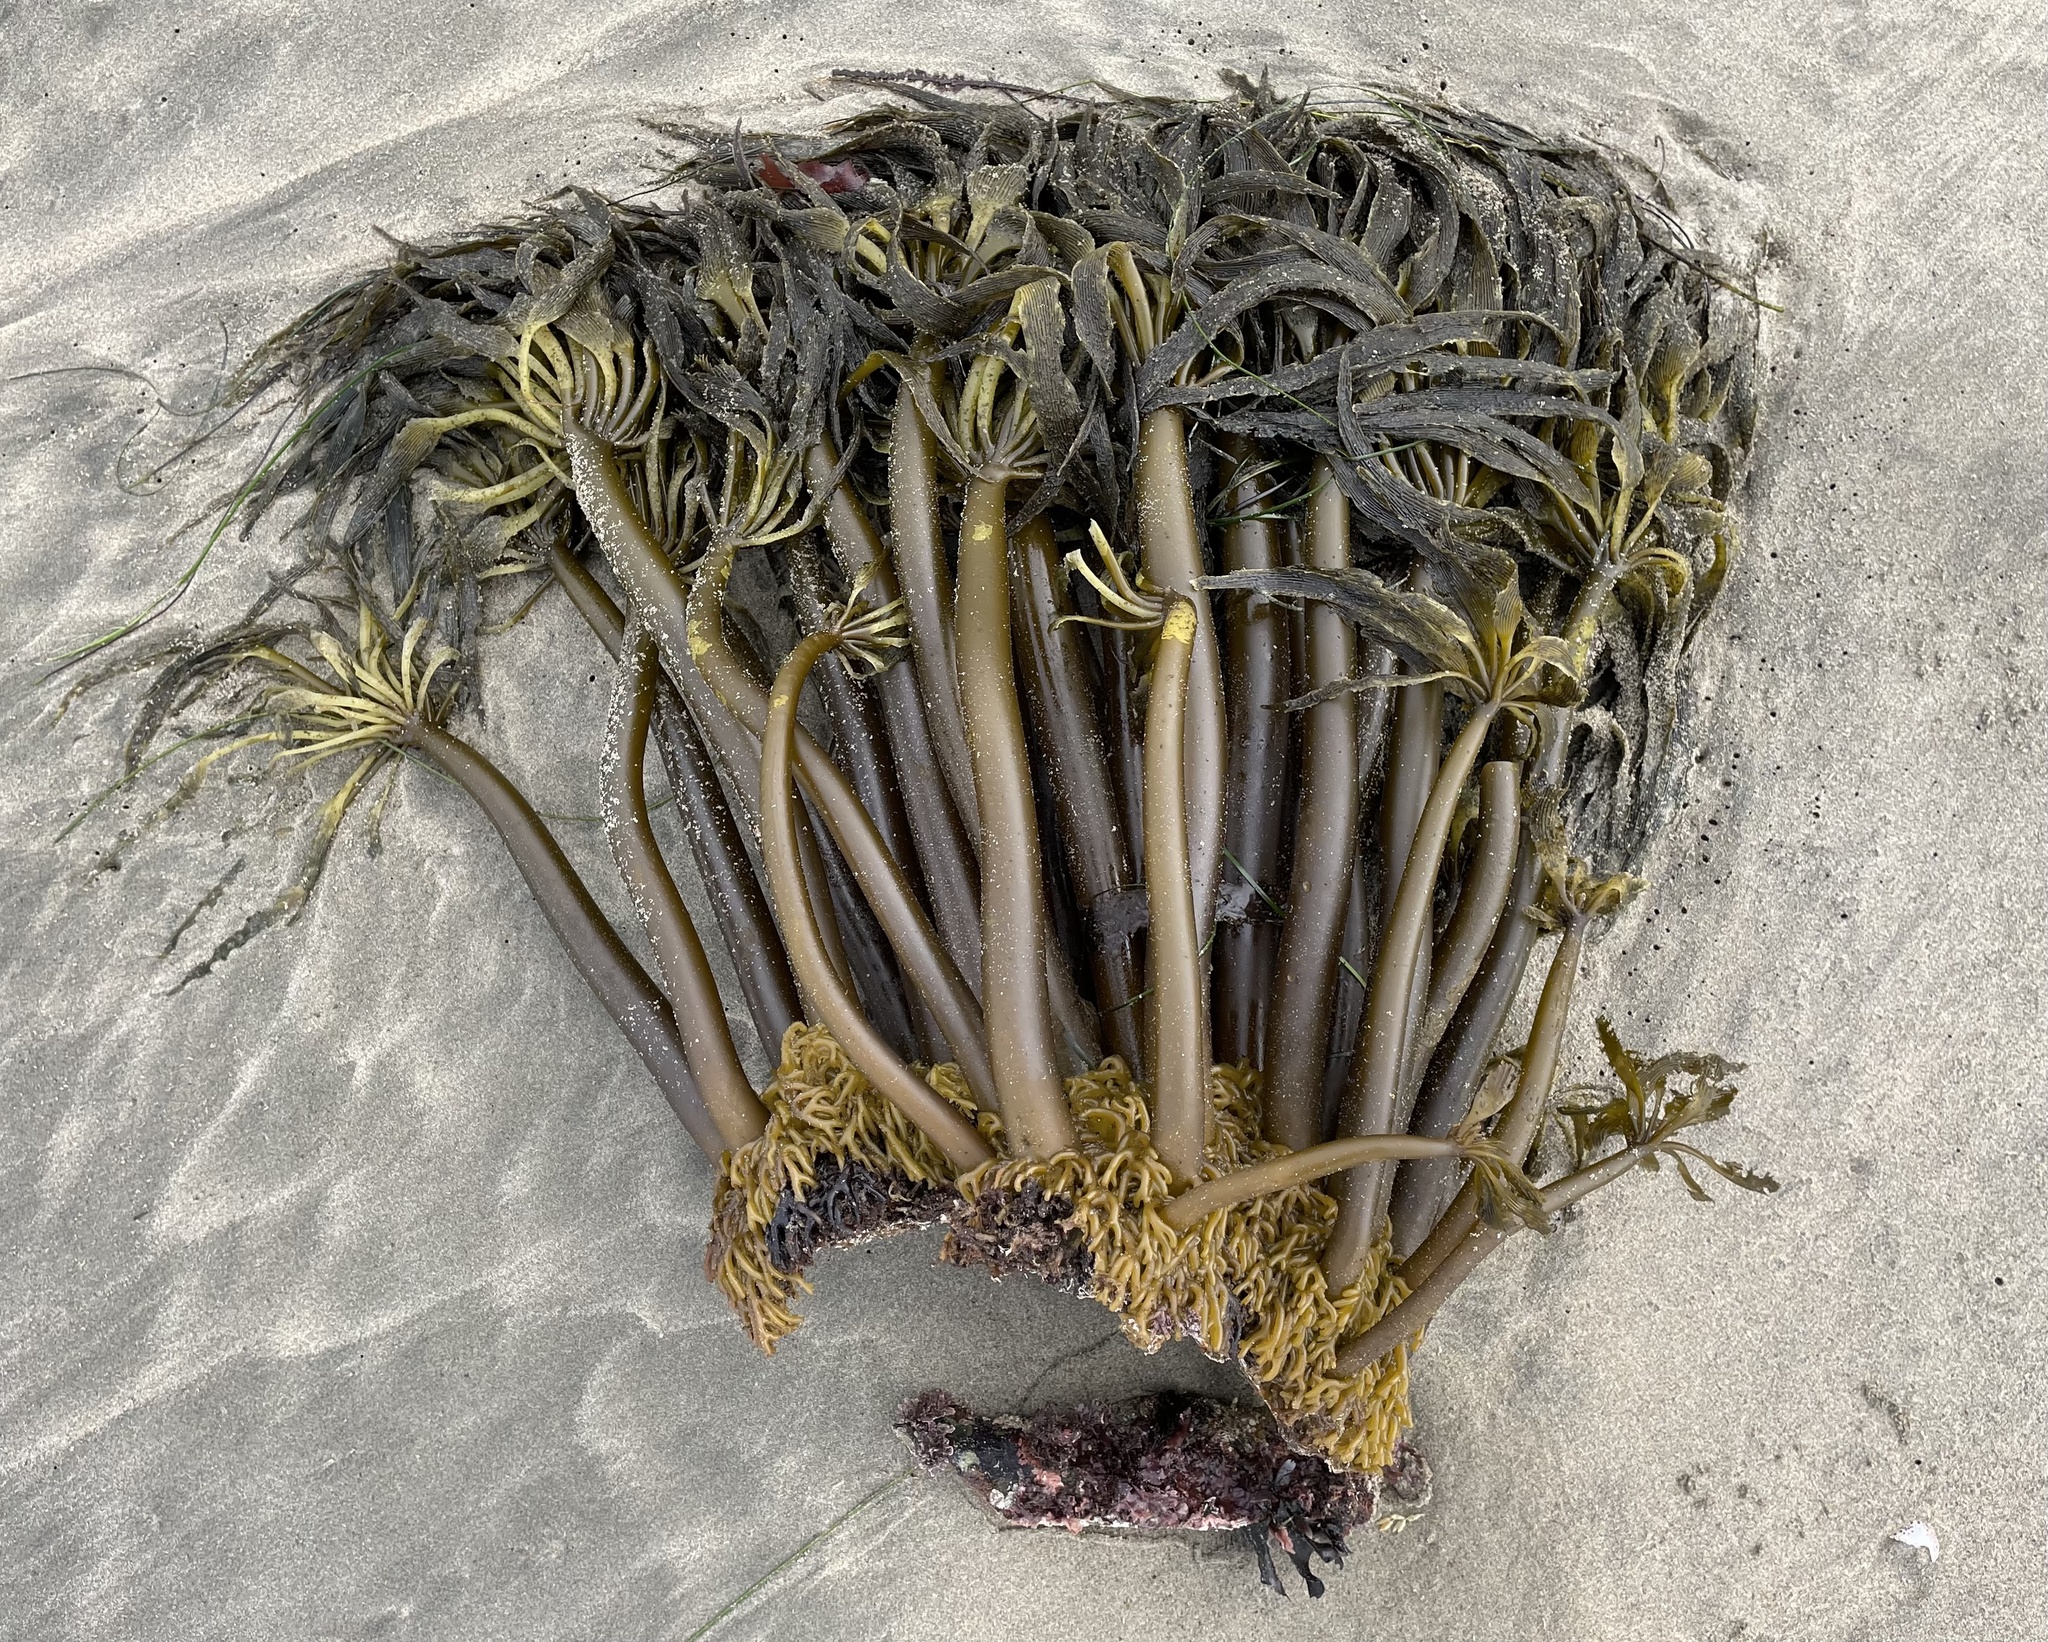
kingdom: Chromista
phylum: Ochrophyta
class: Phaeophyceae
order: Laminariales
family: Laminariaceae
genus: Postelsia
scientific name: Postelsia palmiformis
